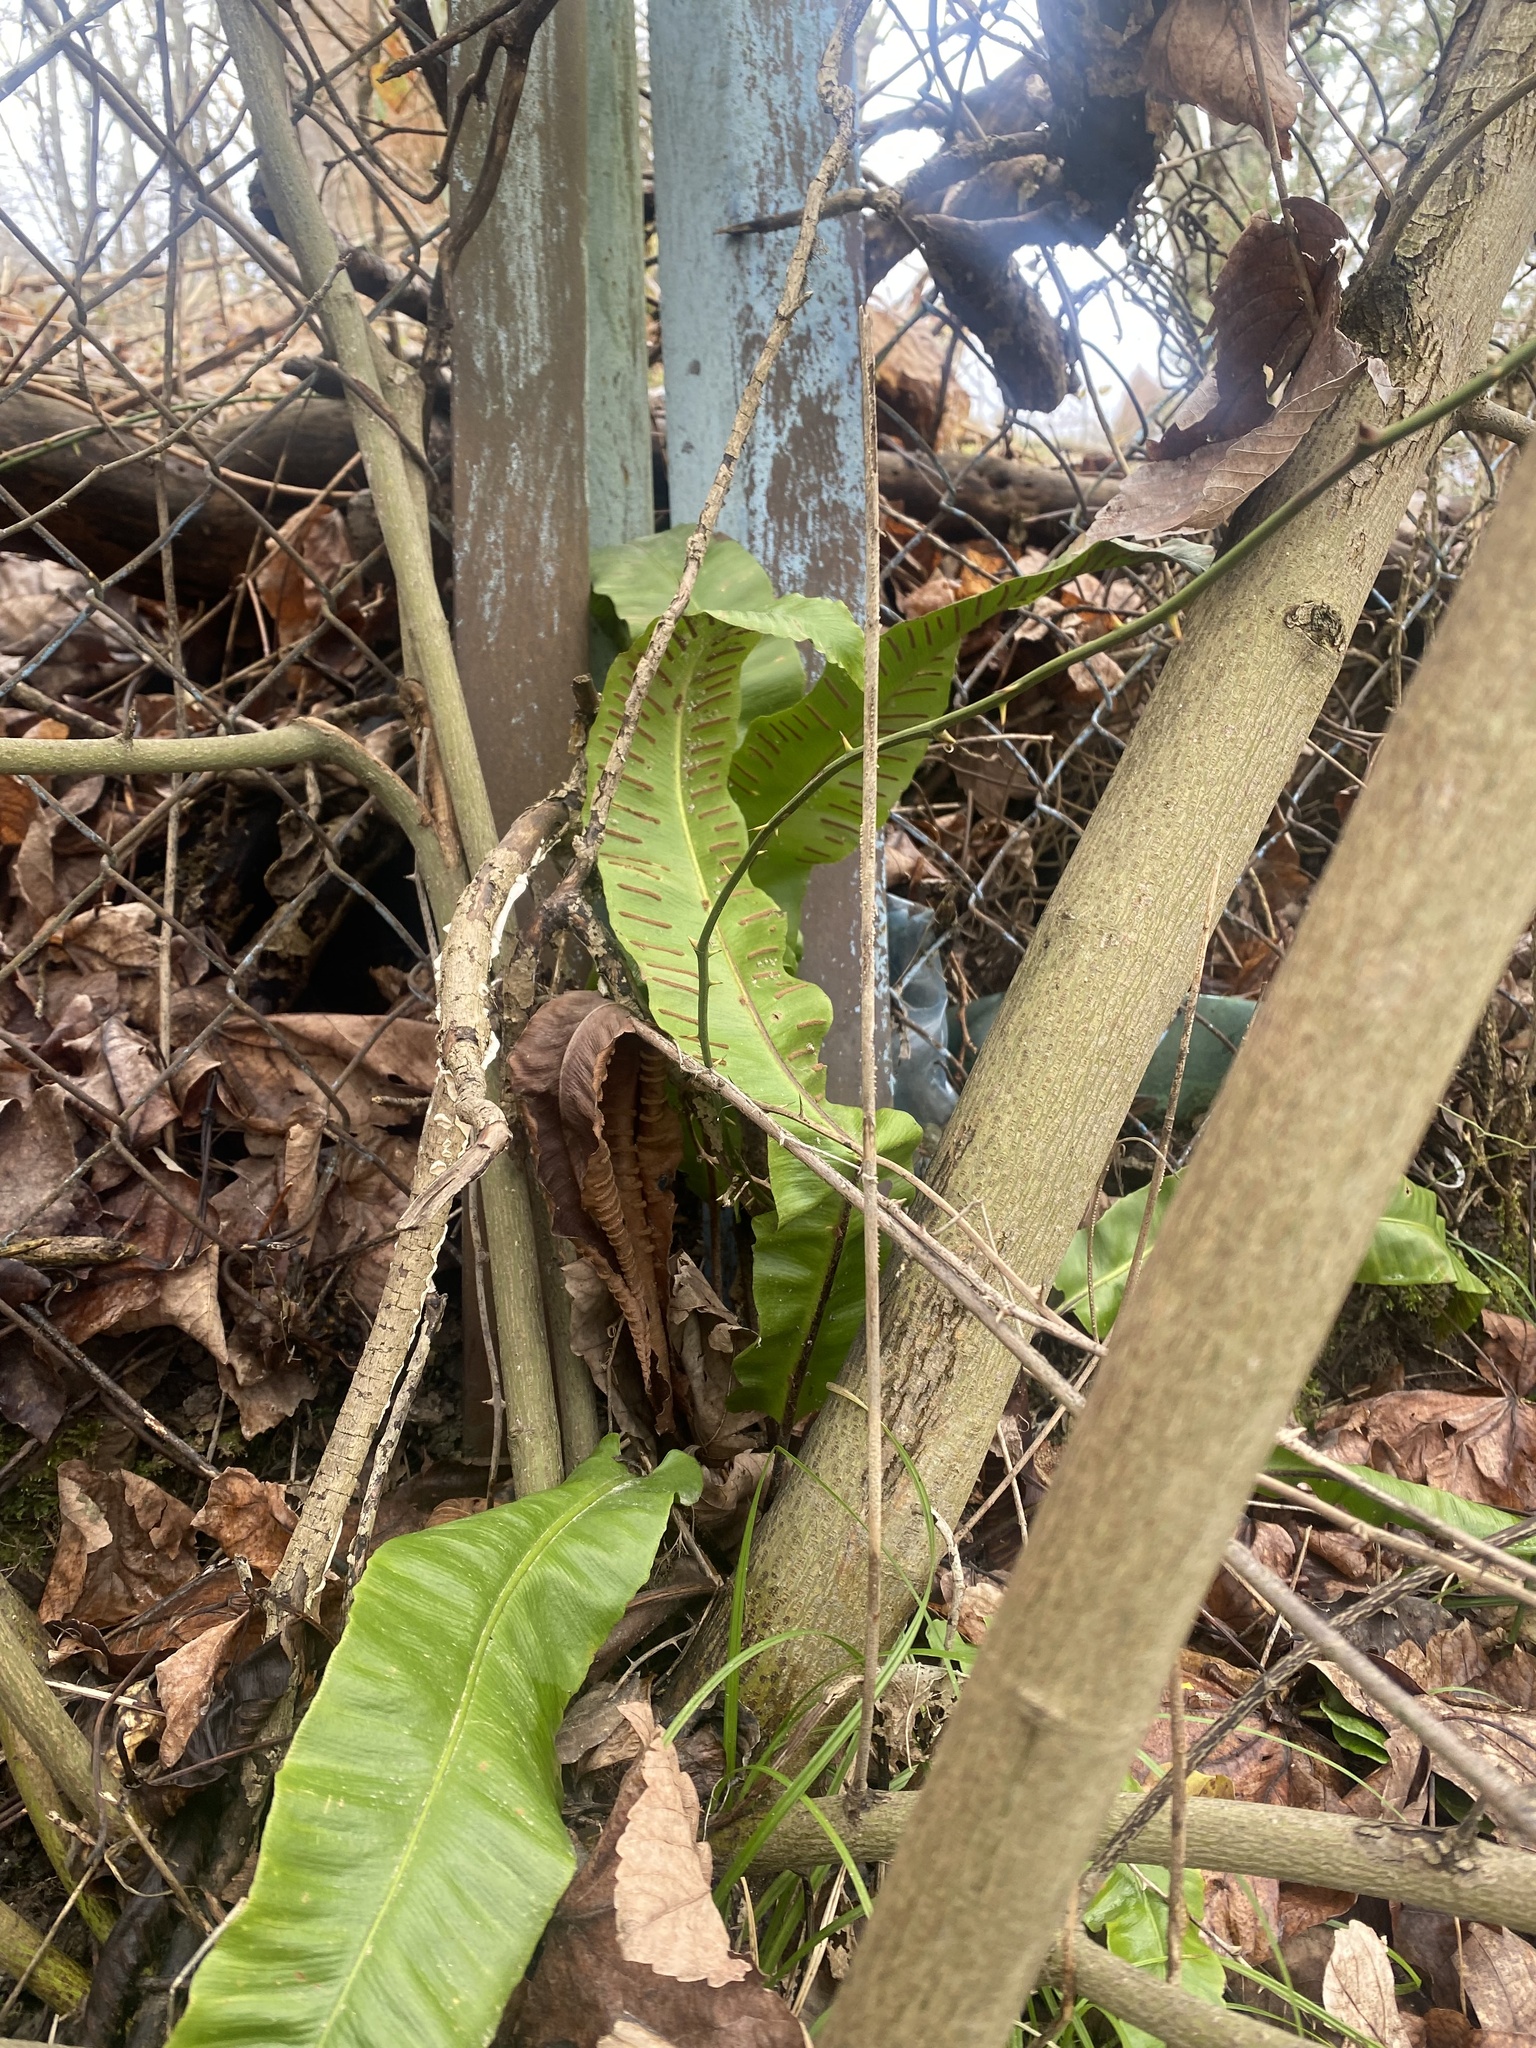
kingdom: Plantae
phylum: Tracheophyta
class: Polypodiopsida
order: Polypodiales
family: Aspleniaceae
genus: Asplenium
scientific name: Asplenium scolopendrium
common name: Hart's-tongue fern
